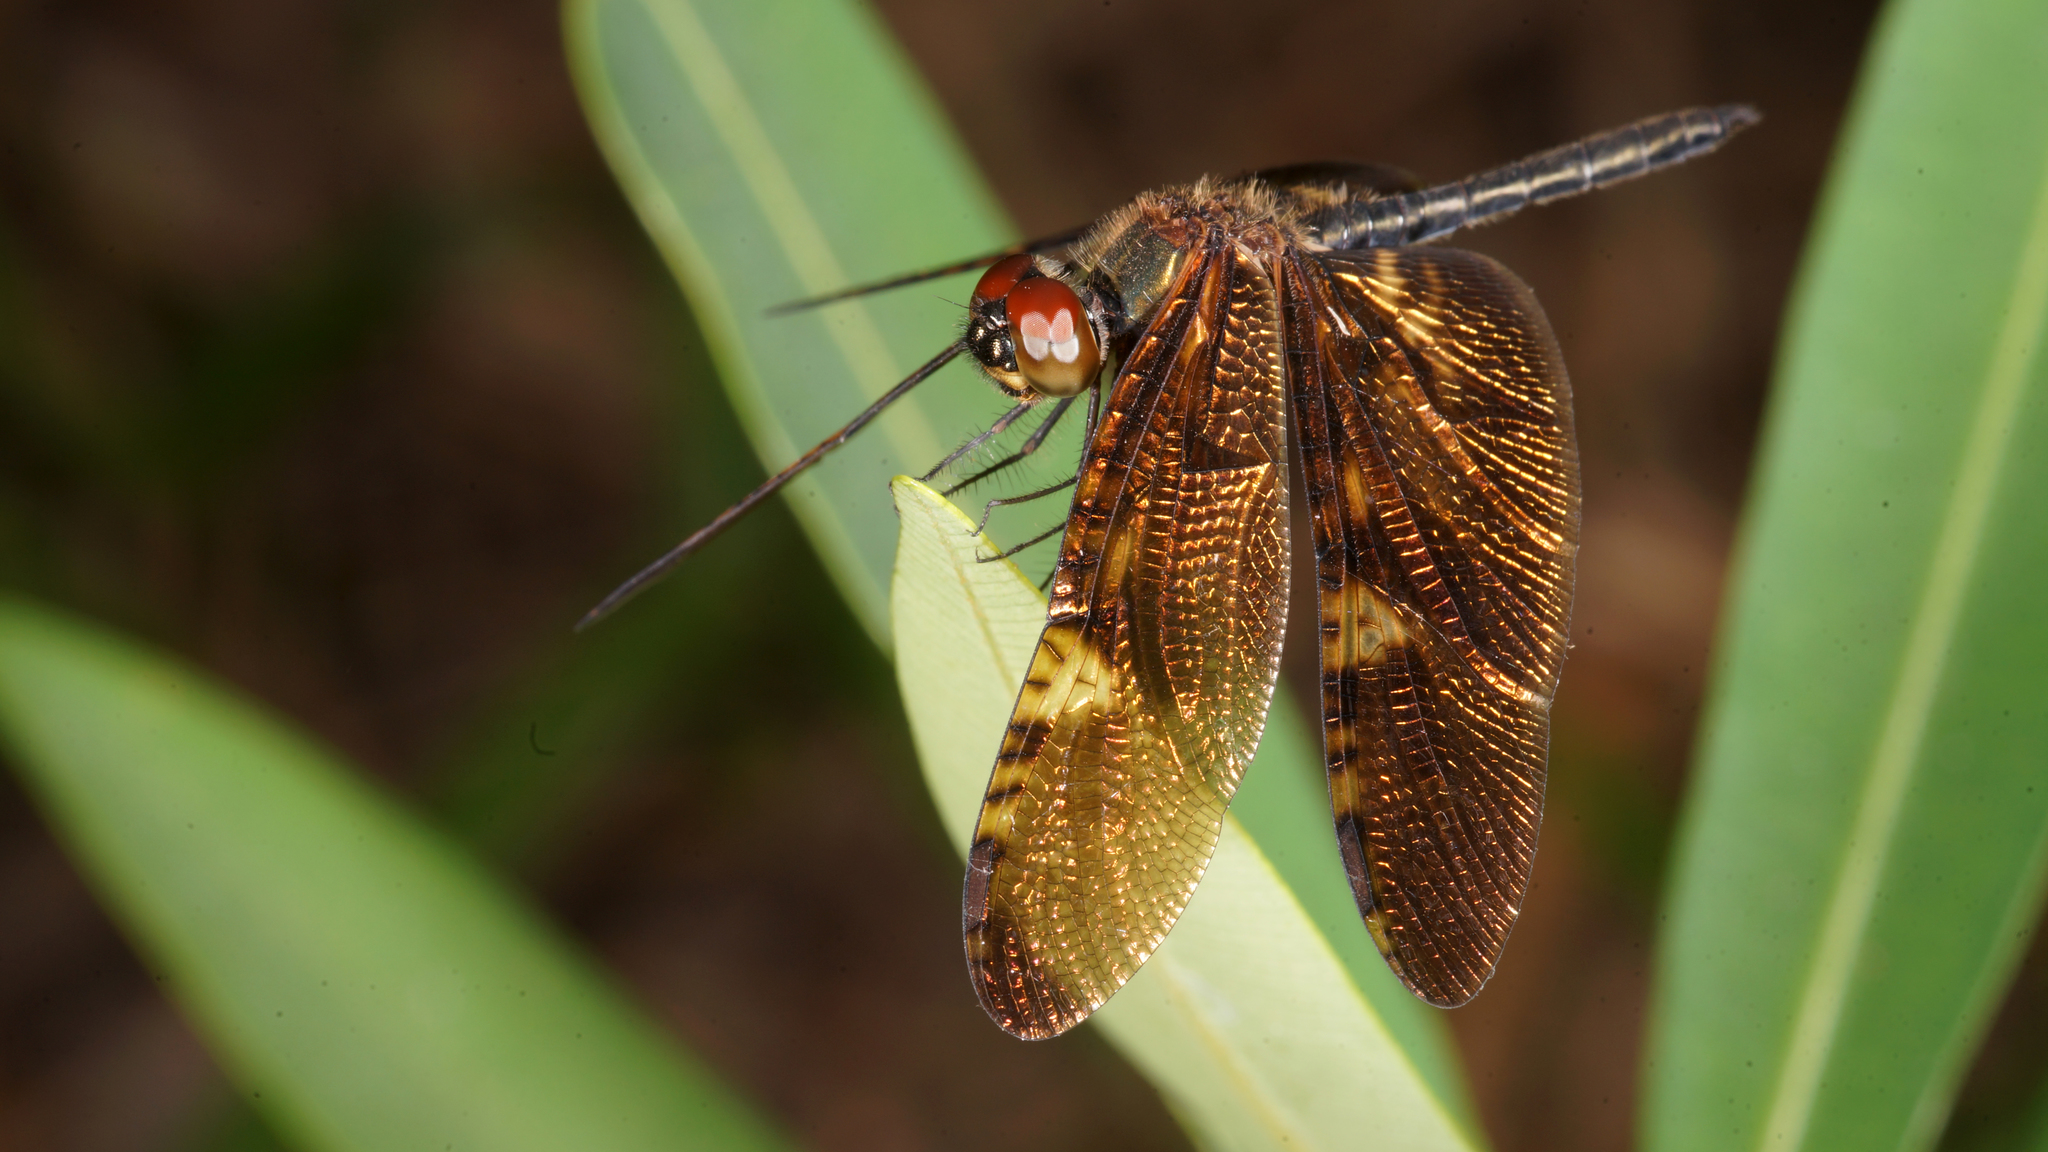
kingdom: Animalia
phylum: Arthropoda
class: Insecta
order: Odonata
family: Libellulidae
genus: Rhyothemis
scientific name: Rhyothemis obsolescens
